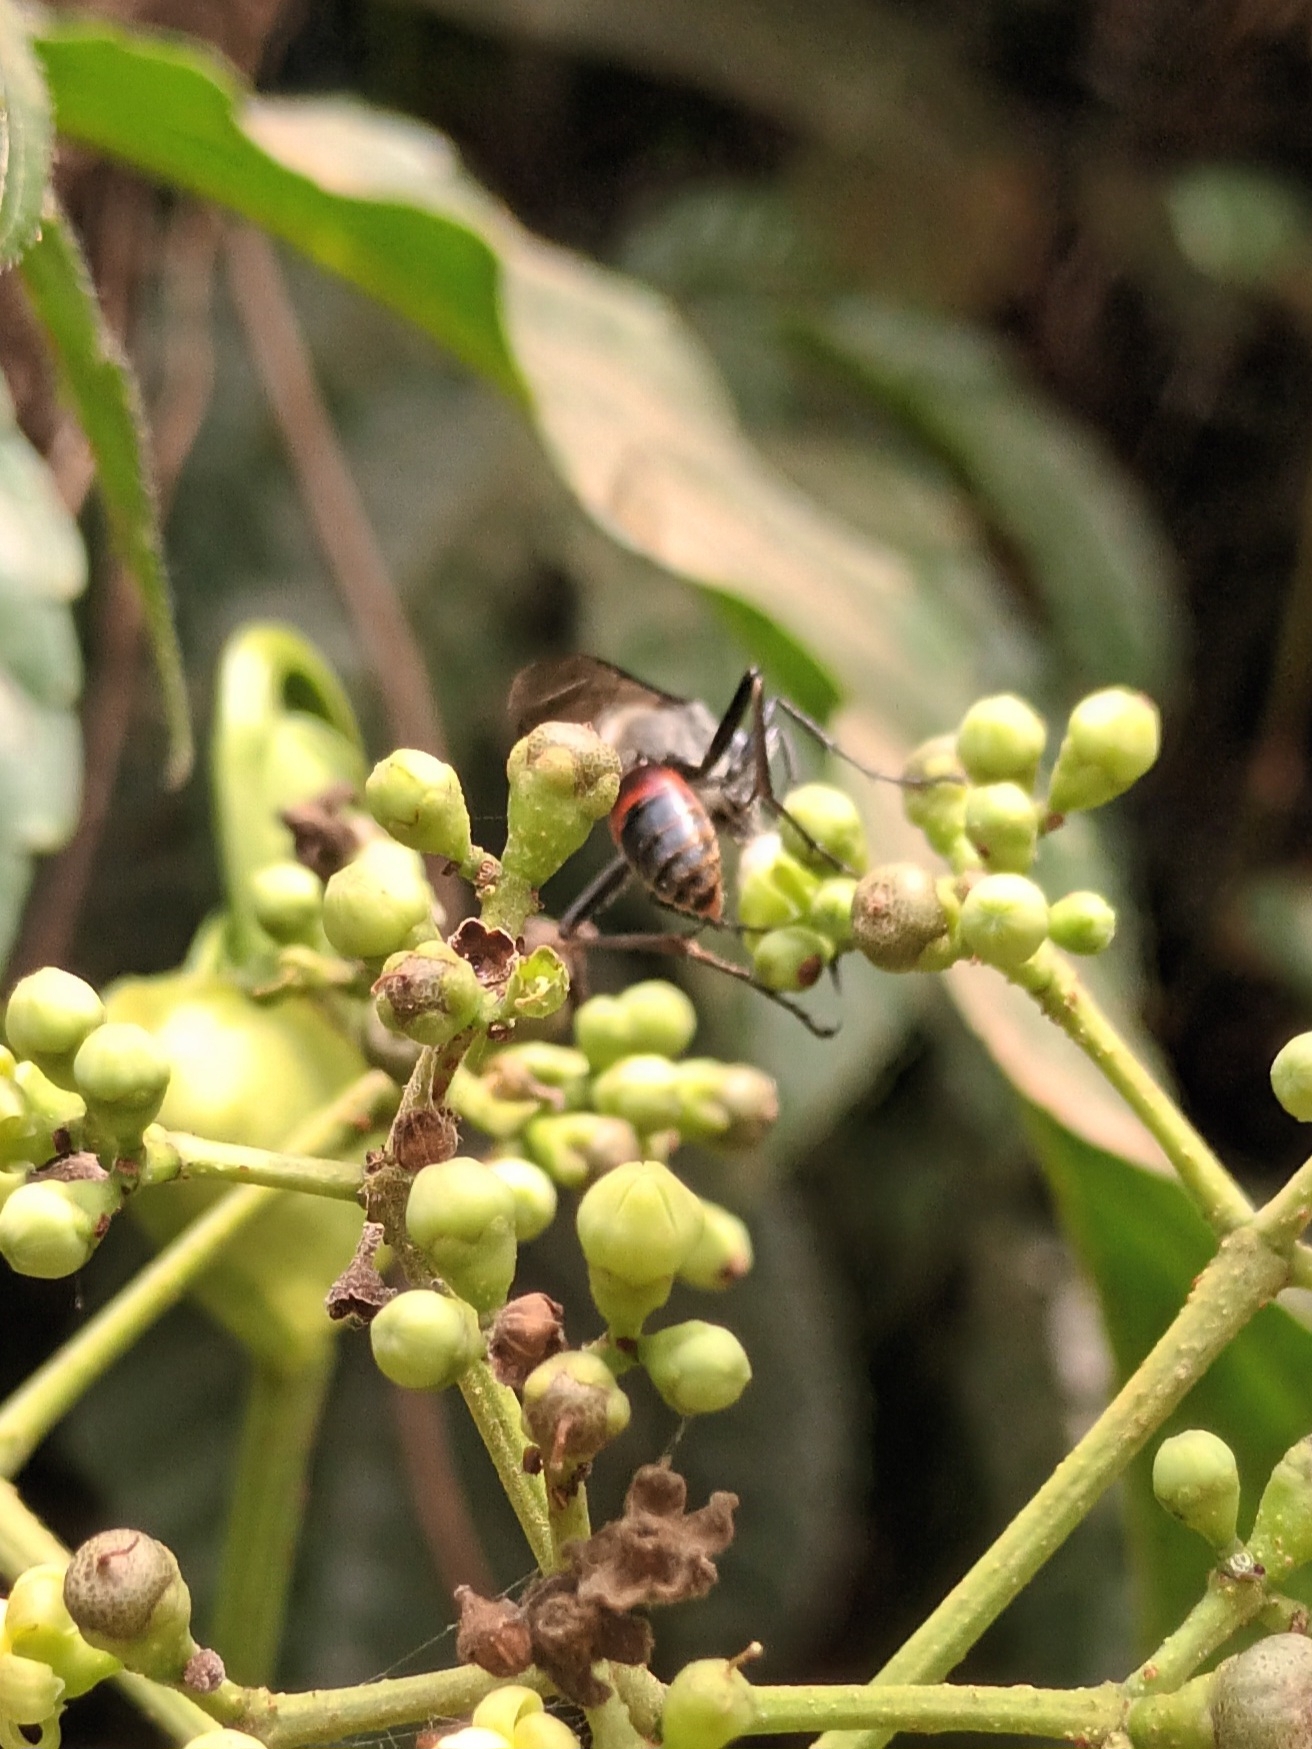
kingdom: Animalia
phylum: Arthropoda
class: Insecta
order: Hymenoptera
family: Sphecidae
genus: Sphex
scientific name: Sphex sericeus
